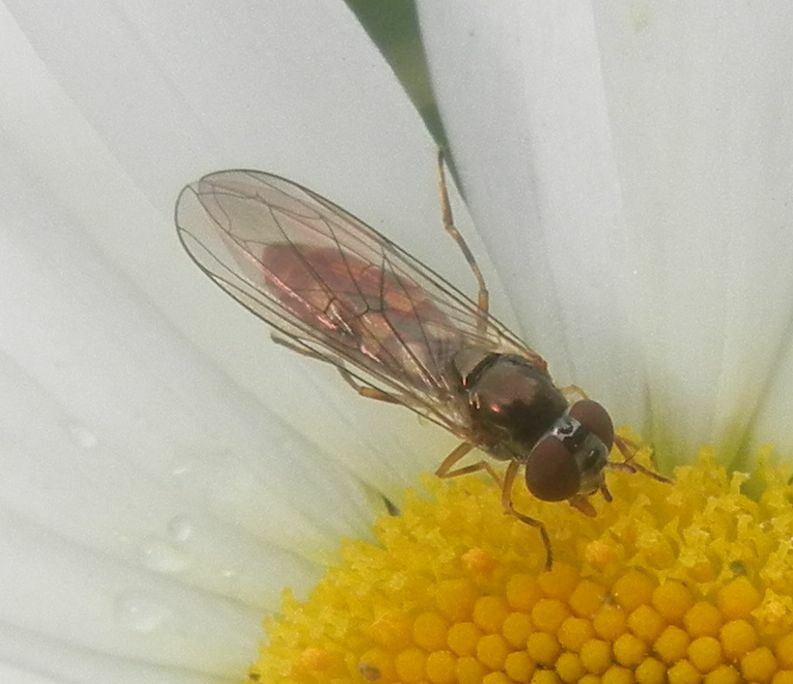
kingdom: Animalia
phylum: Arthropoda
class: Insecta
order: Diptera
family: Syrphidae
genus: Melanostoma
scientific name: Melanostoma scalare
